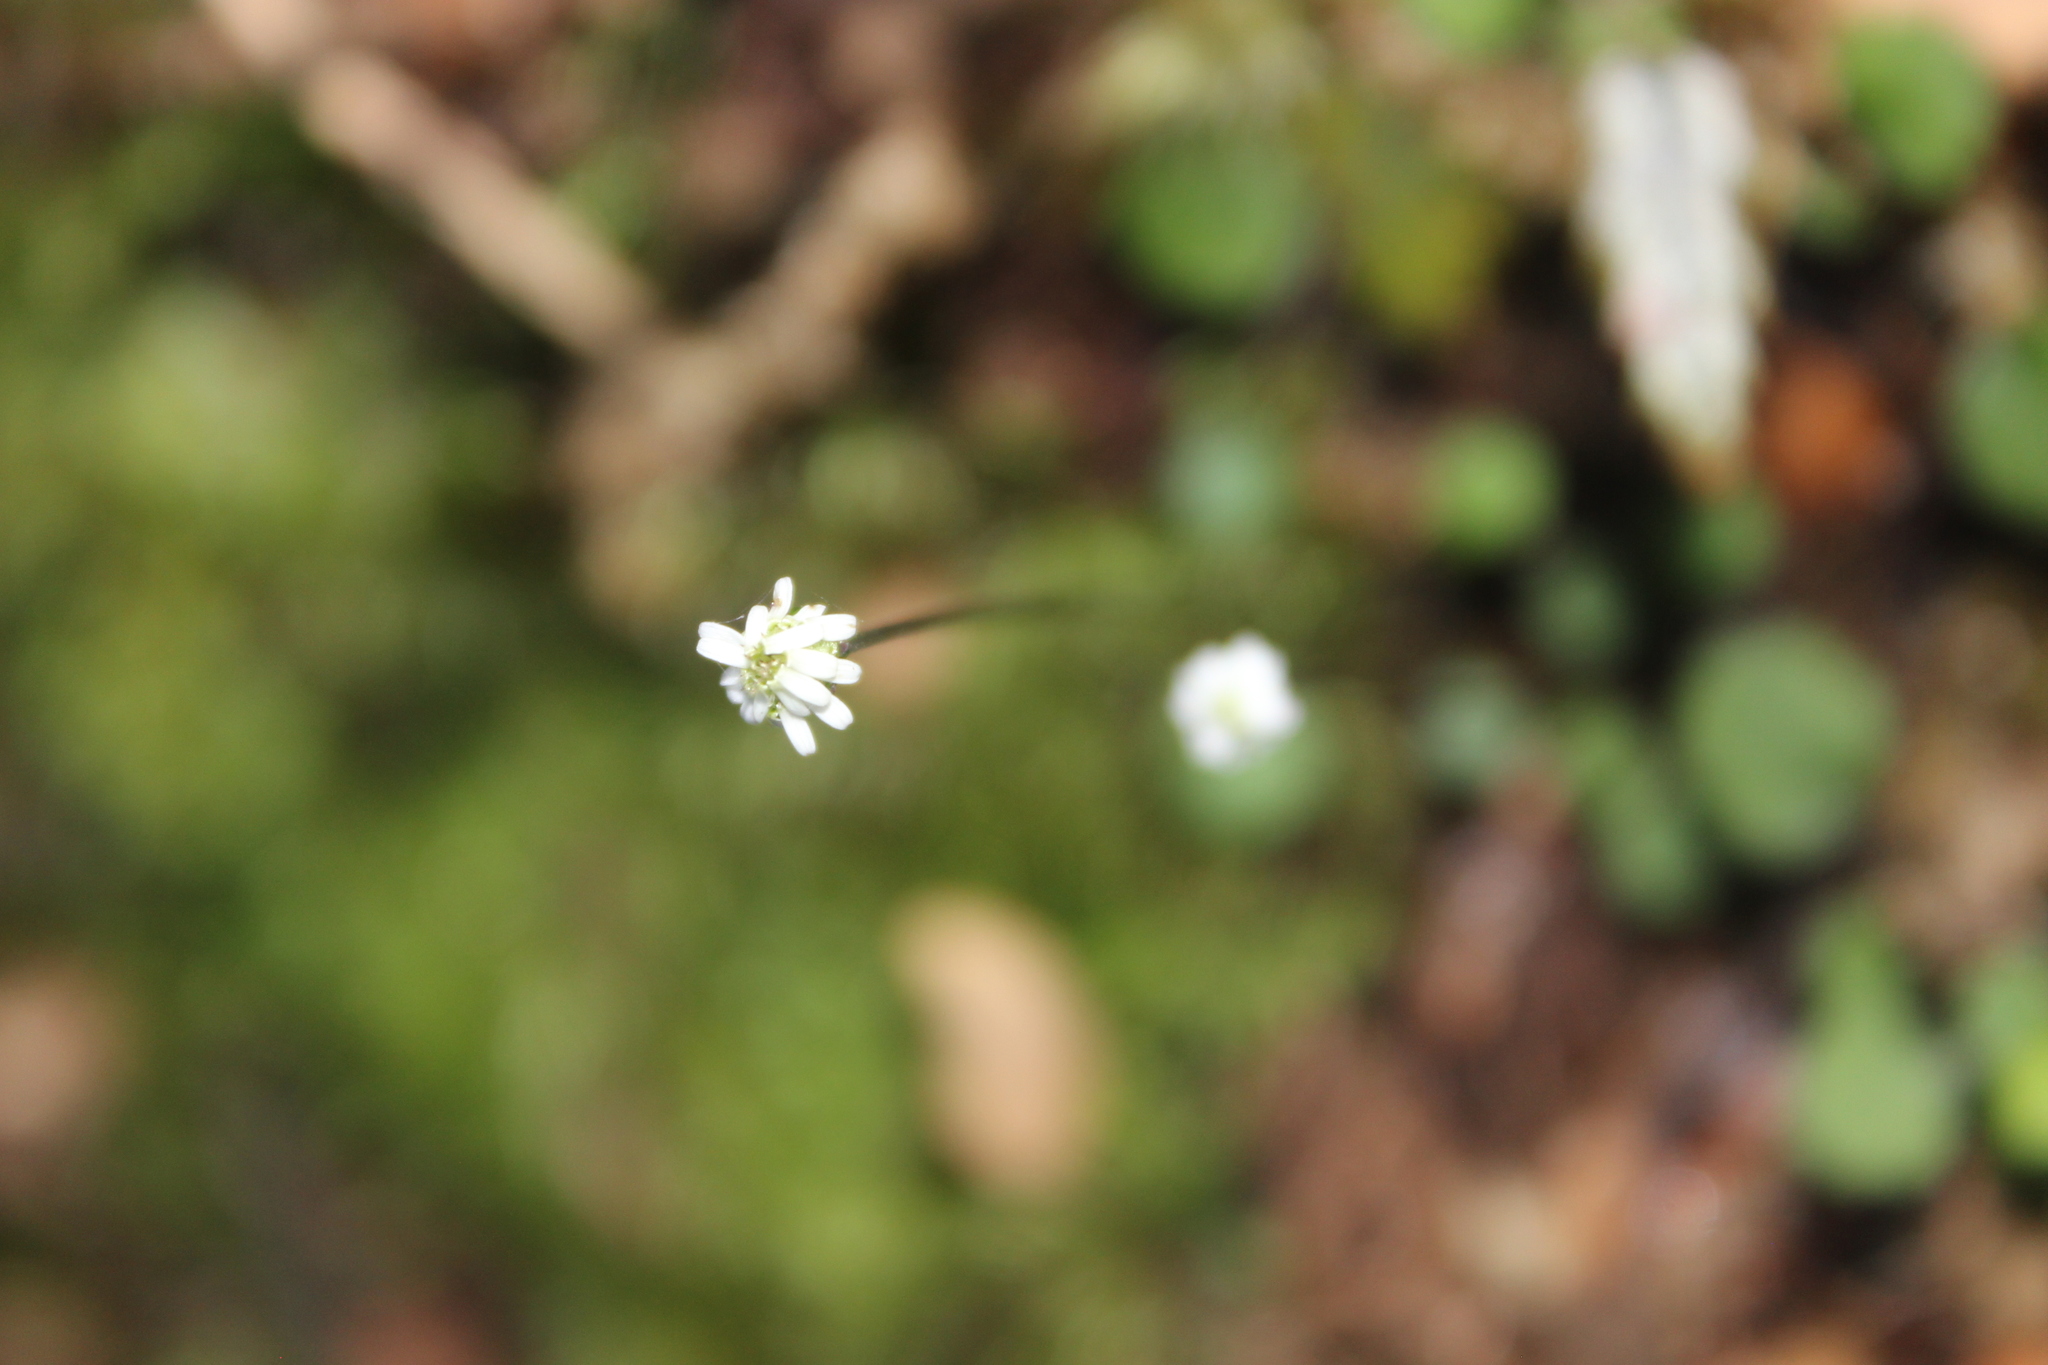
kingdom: Plantae
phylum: Tracheophyta
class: Magnoliopsida
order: Asterales
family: Asteraceae
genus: Lagenophora
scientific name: Lagenophora strangulata
